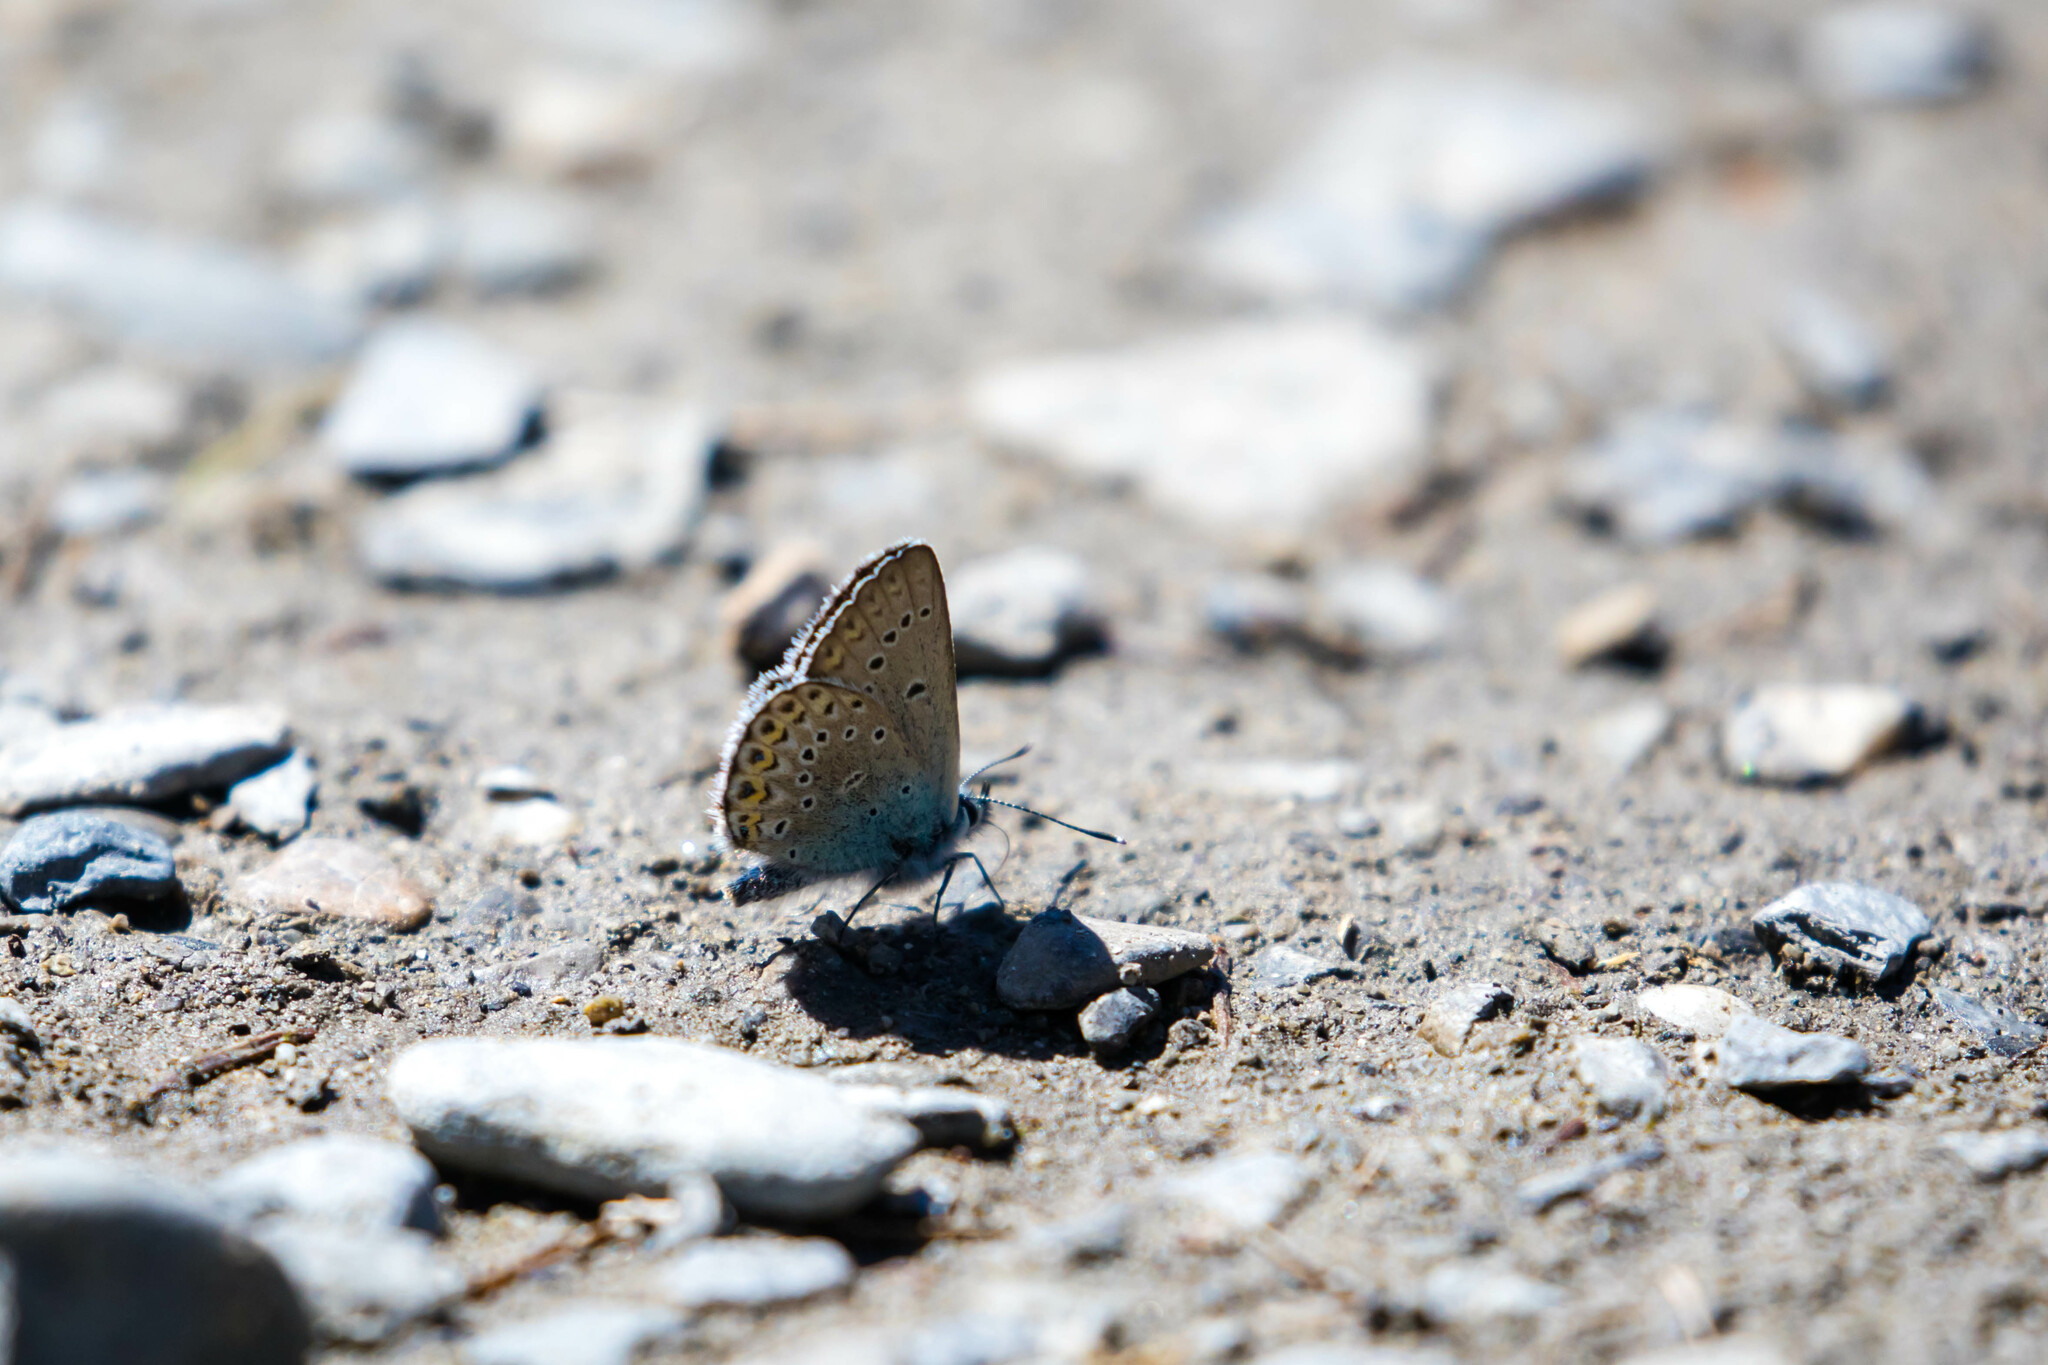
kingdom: Animalia
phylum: Arthropoda
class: Insecta
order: Lepidoptera
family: Lycaenidae
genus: Lycaeides
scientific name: Lycaeides idas
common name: Northern blue
